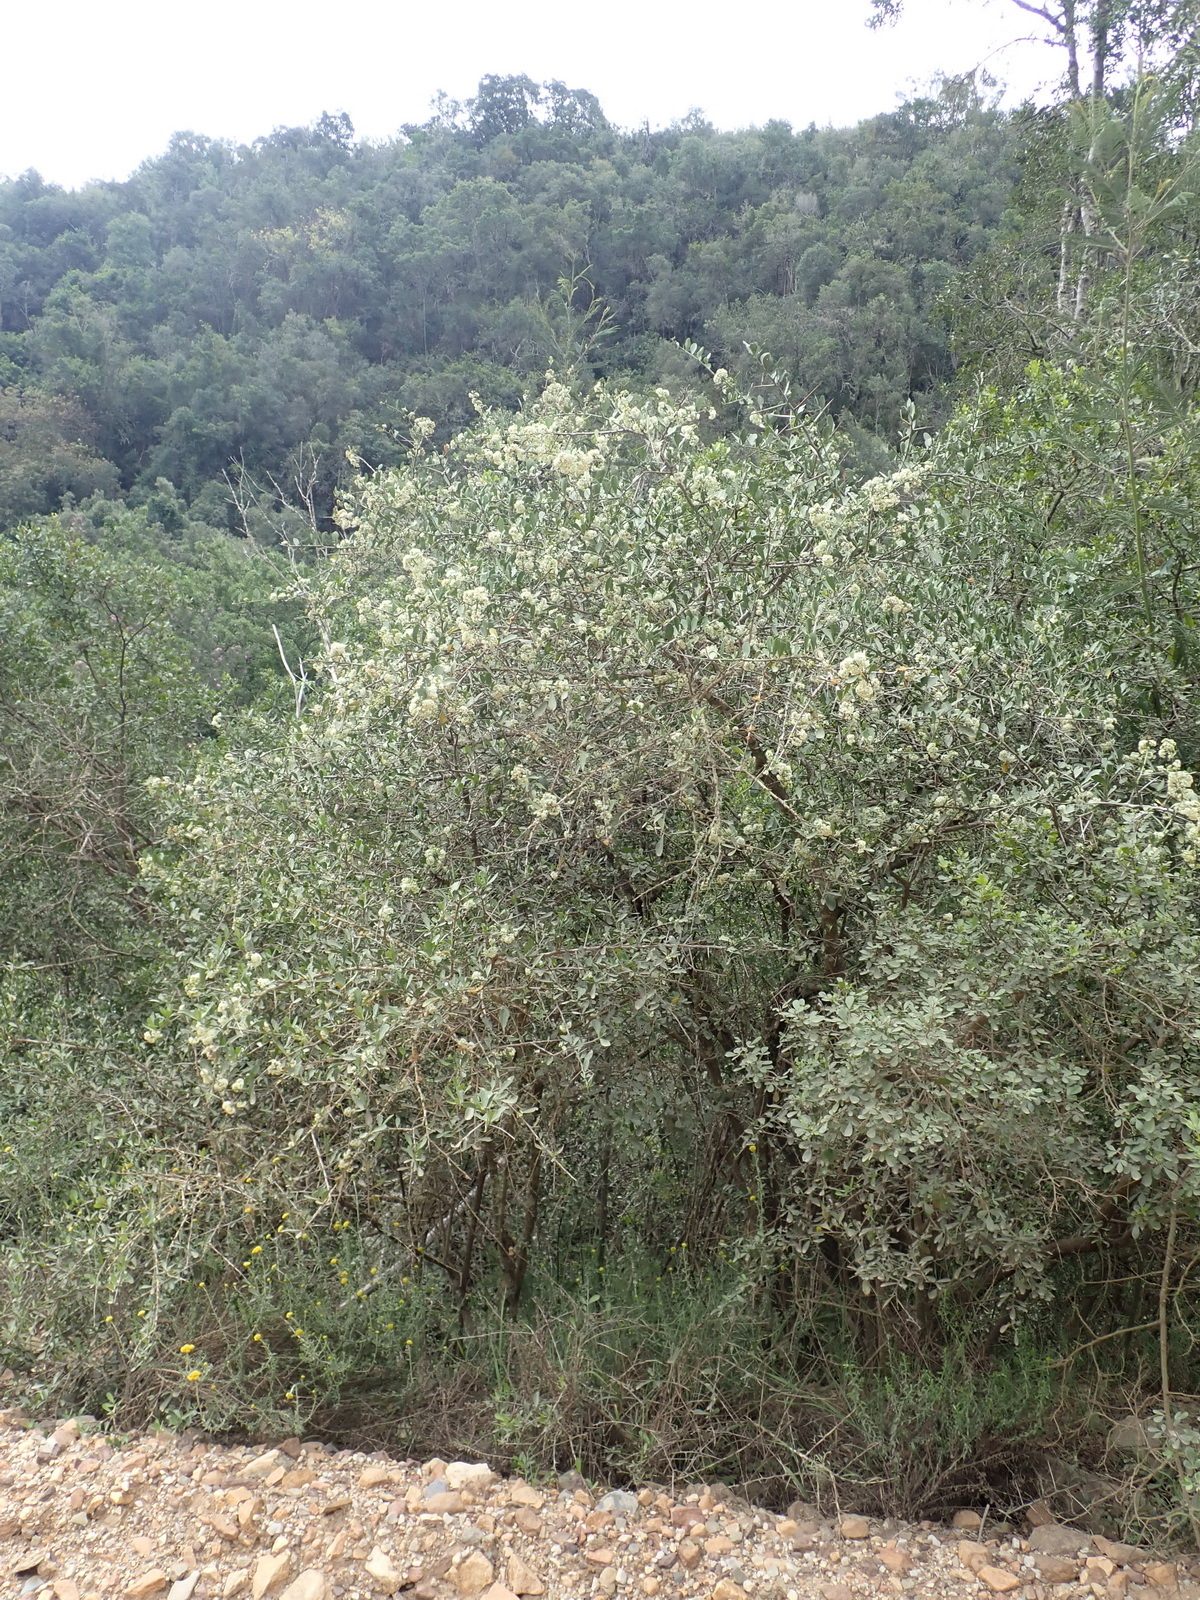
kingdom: Plantae
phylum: Tracheophyta
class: Magnoliopsida
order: Celastrales
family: Celastraceae
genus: Gymnosporia
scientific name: Gymnosporia buxifolia
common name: Common spike-thorn
